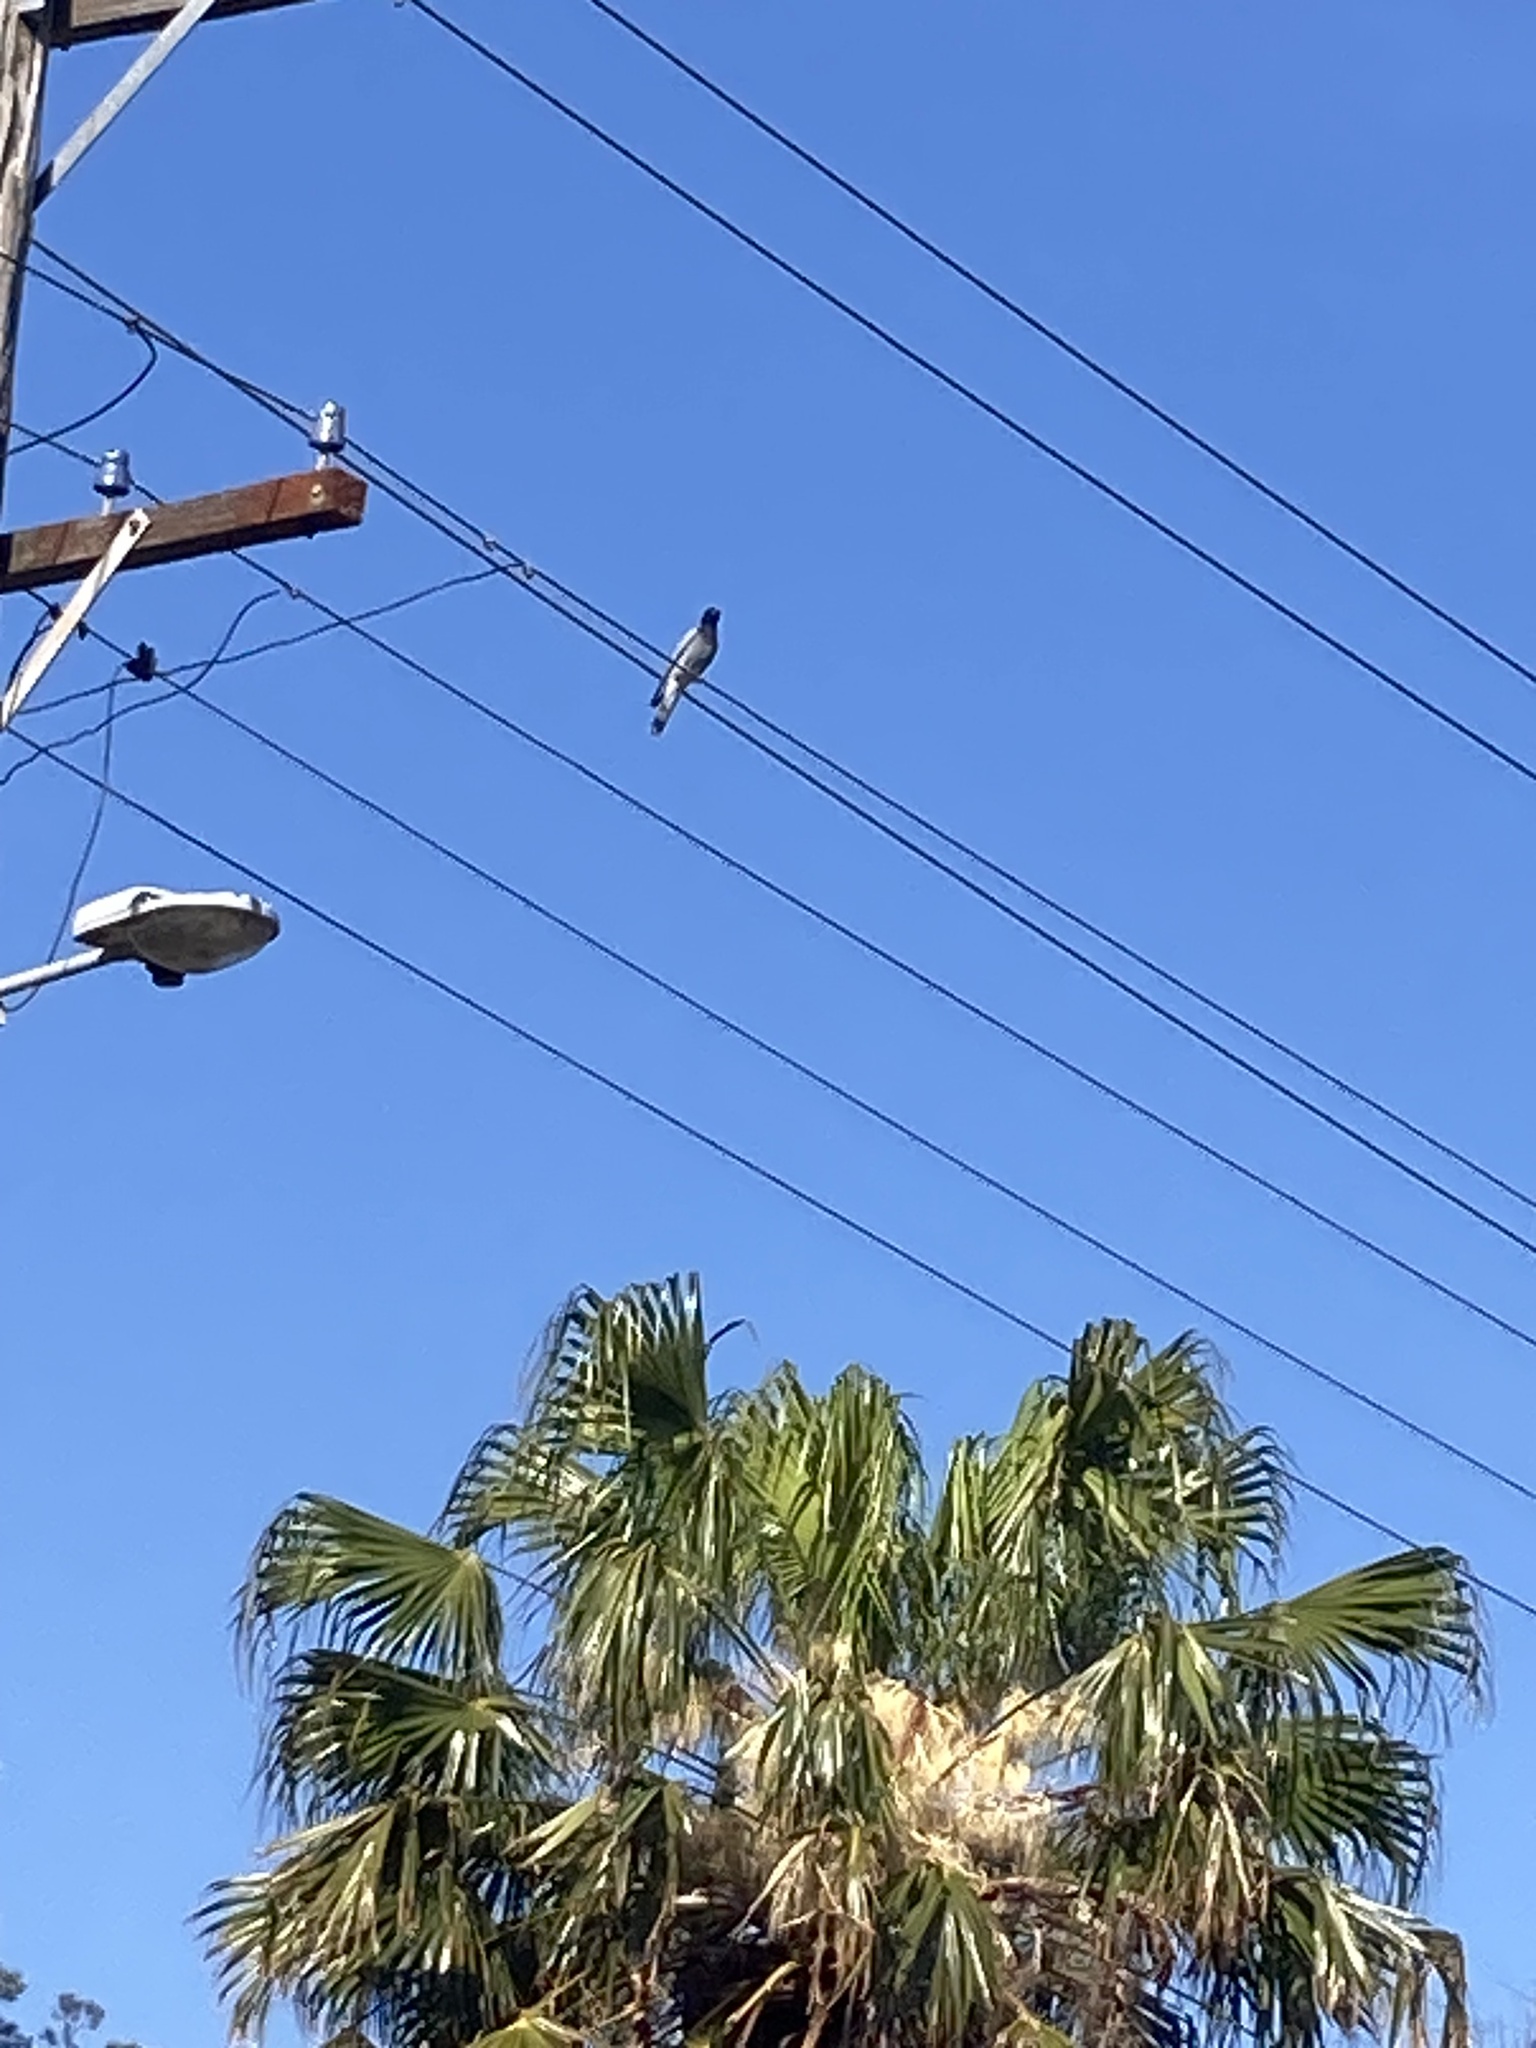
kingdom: Animalia
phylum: Chordata
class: Aves
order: Passeriformes
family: Campephagidae
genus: Coracina
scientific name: Coracina novaehollandiae
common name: Black-faced cuckooshrike
